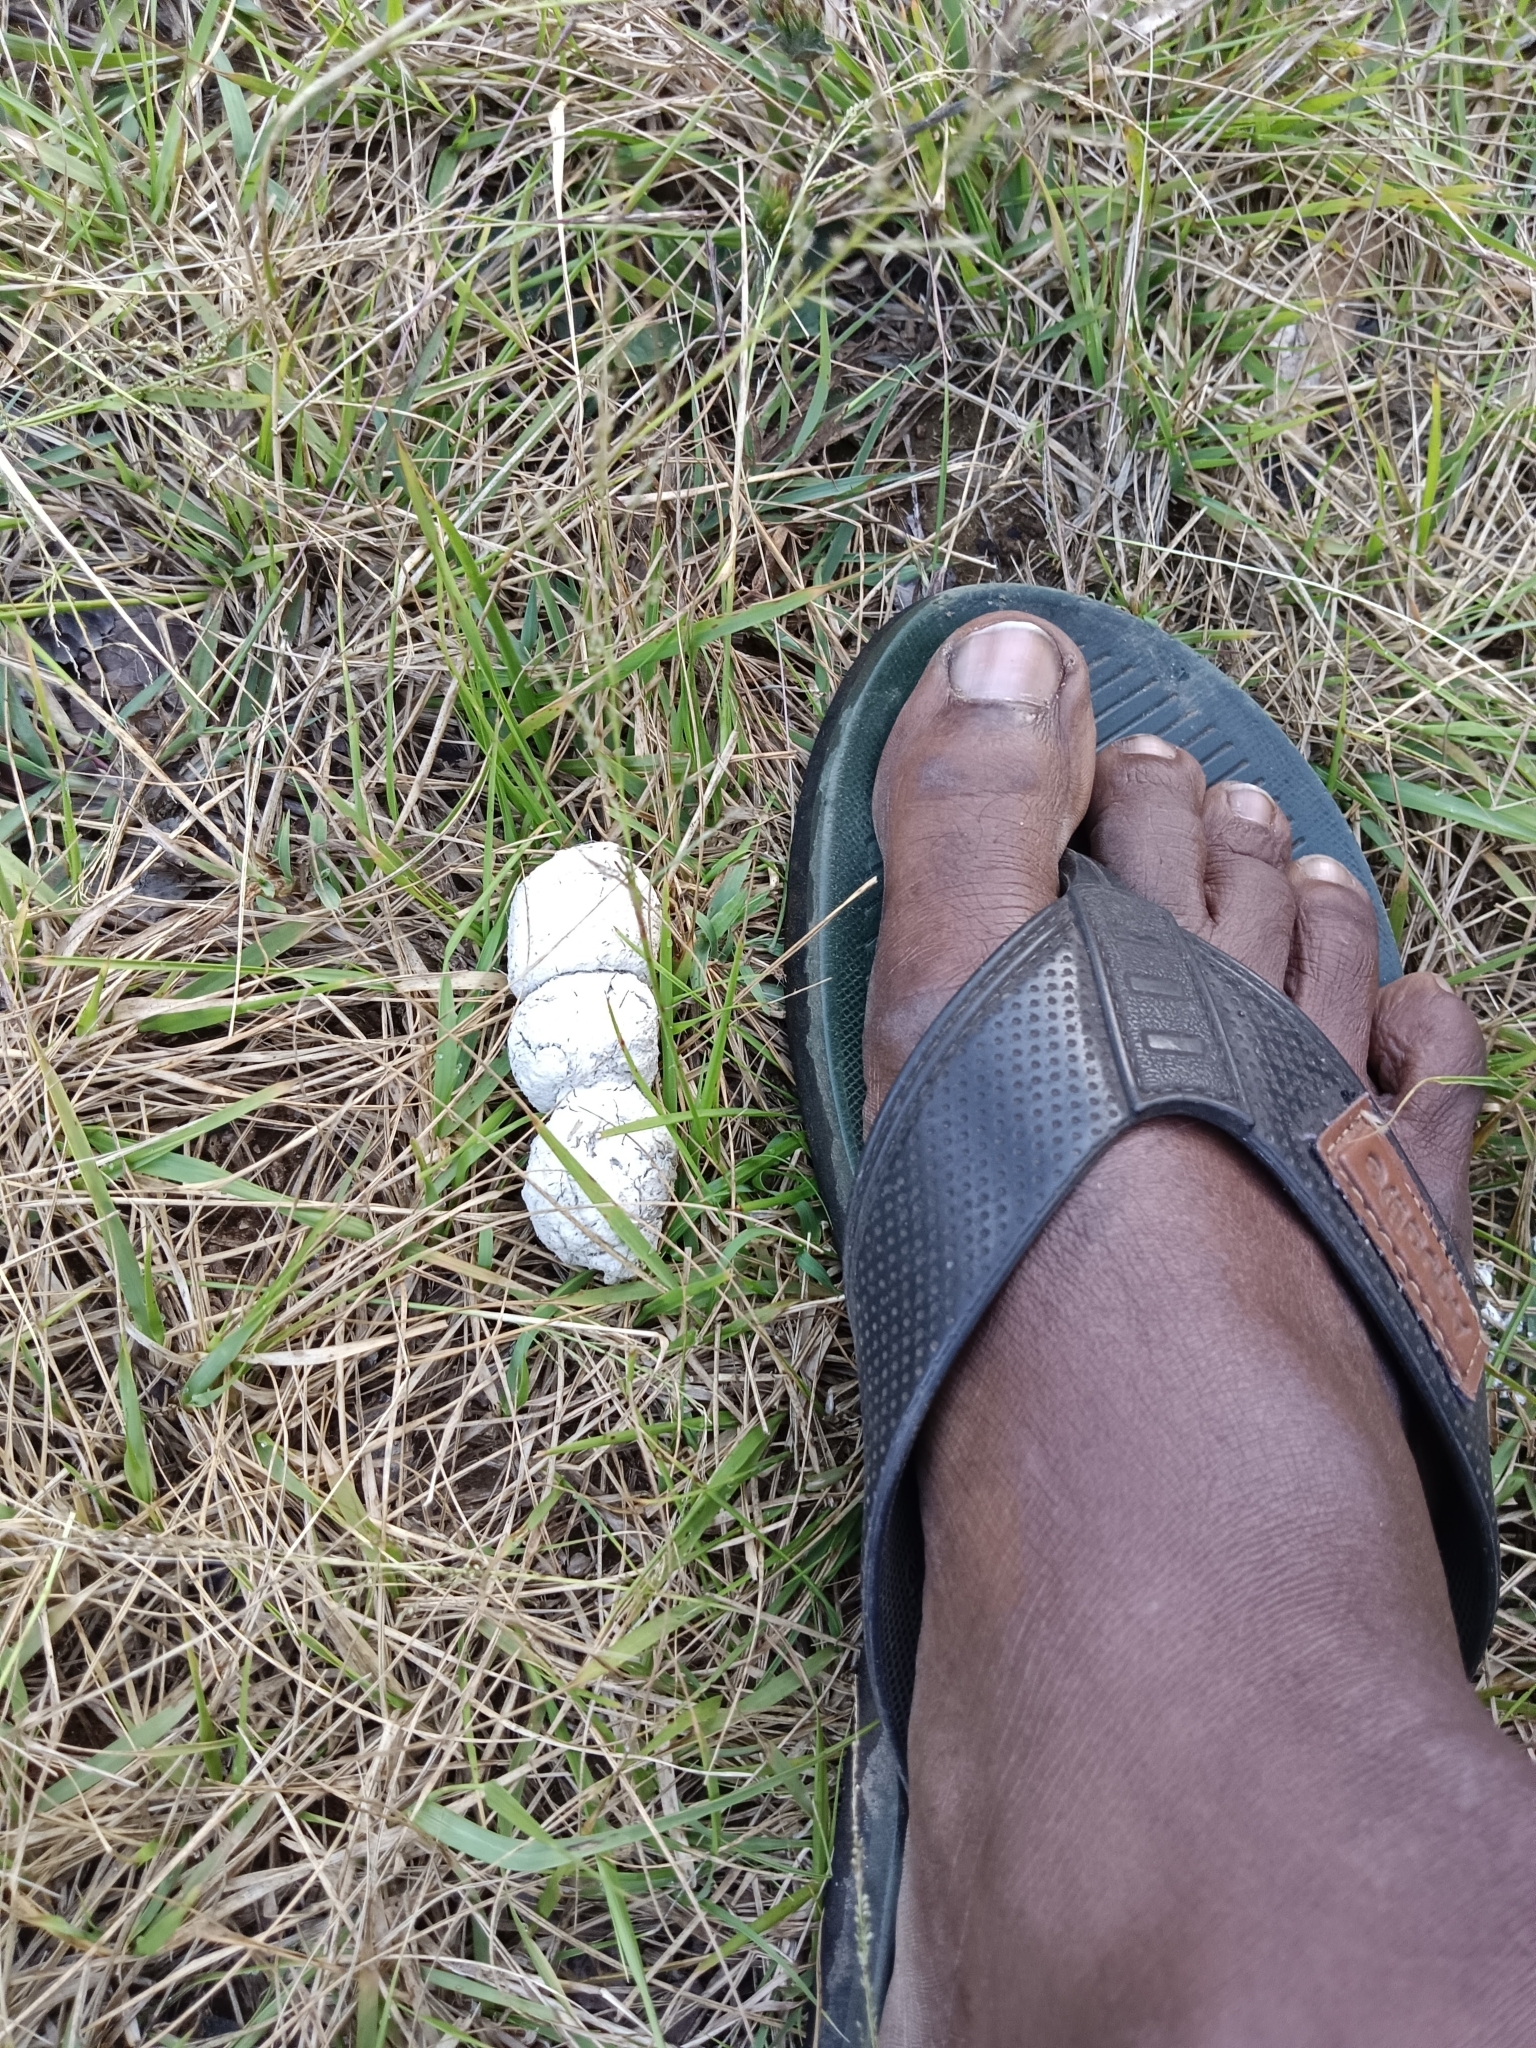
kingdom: Animalia
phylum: Chordata
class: Mammalia
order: Carnivora
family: Felidae
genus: Panthera
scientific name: Panthera pardus
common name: Leopard
